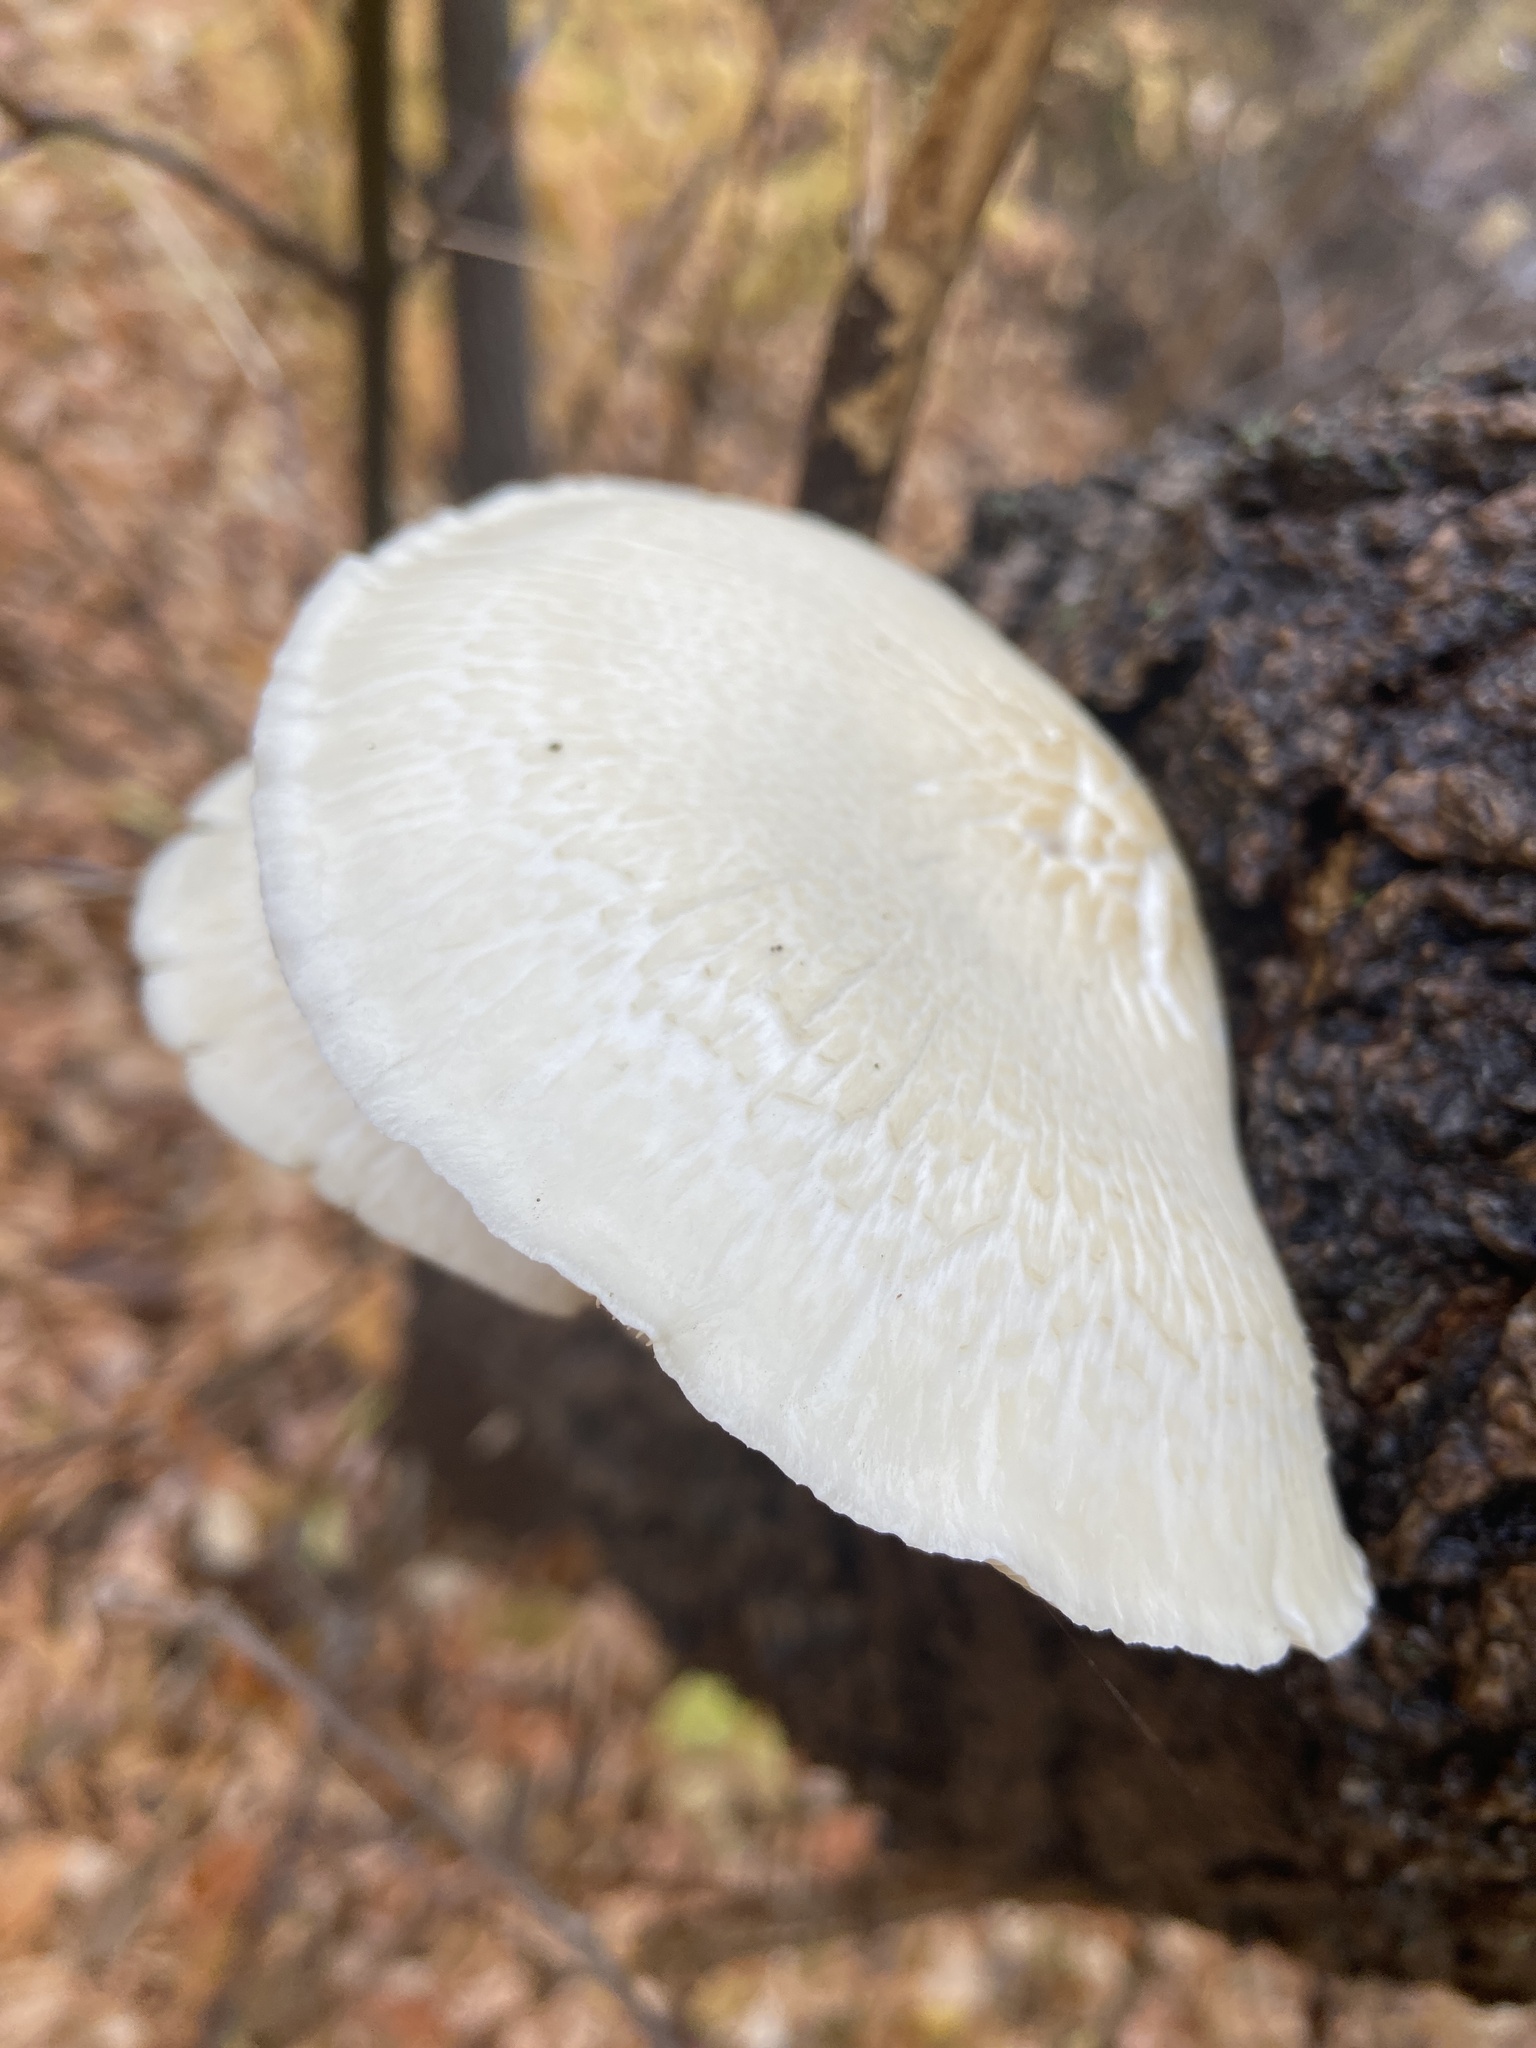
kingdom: Fungi
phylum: Basidiomycota
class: Agaricomycetes
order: Agaricales
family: Lyophyllaceae
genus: Hypsizygus
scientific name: Hypsizygus ulmarius
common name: Elm leech
